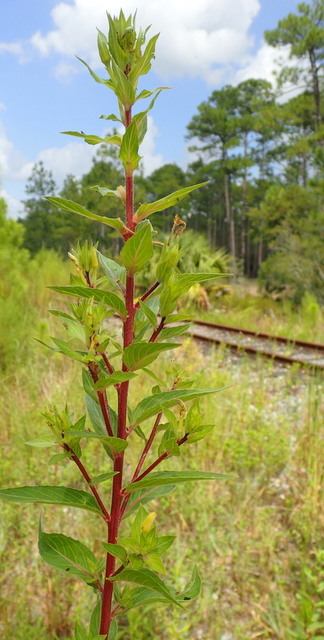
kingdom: Plantae
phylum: Tracheophyta
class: Magnoliopsida
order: Myrtales
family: Onagraceae
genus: Oenothera
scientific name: Oenothera biennis
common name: Common evening-primrose
